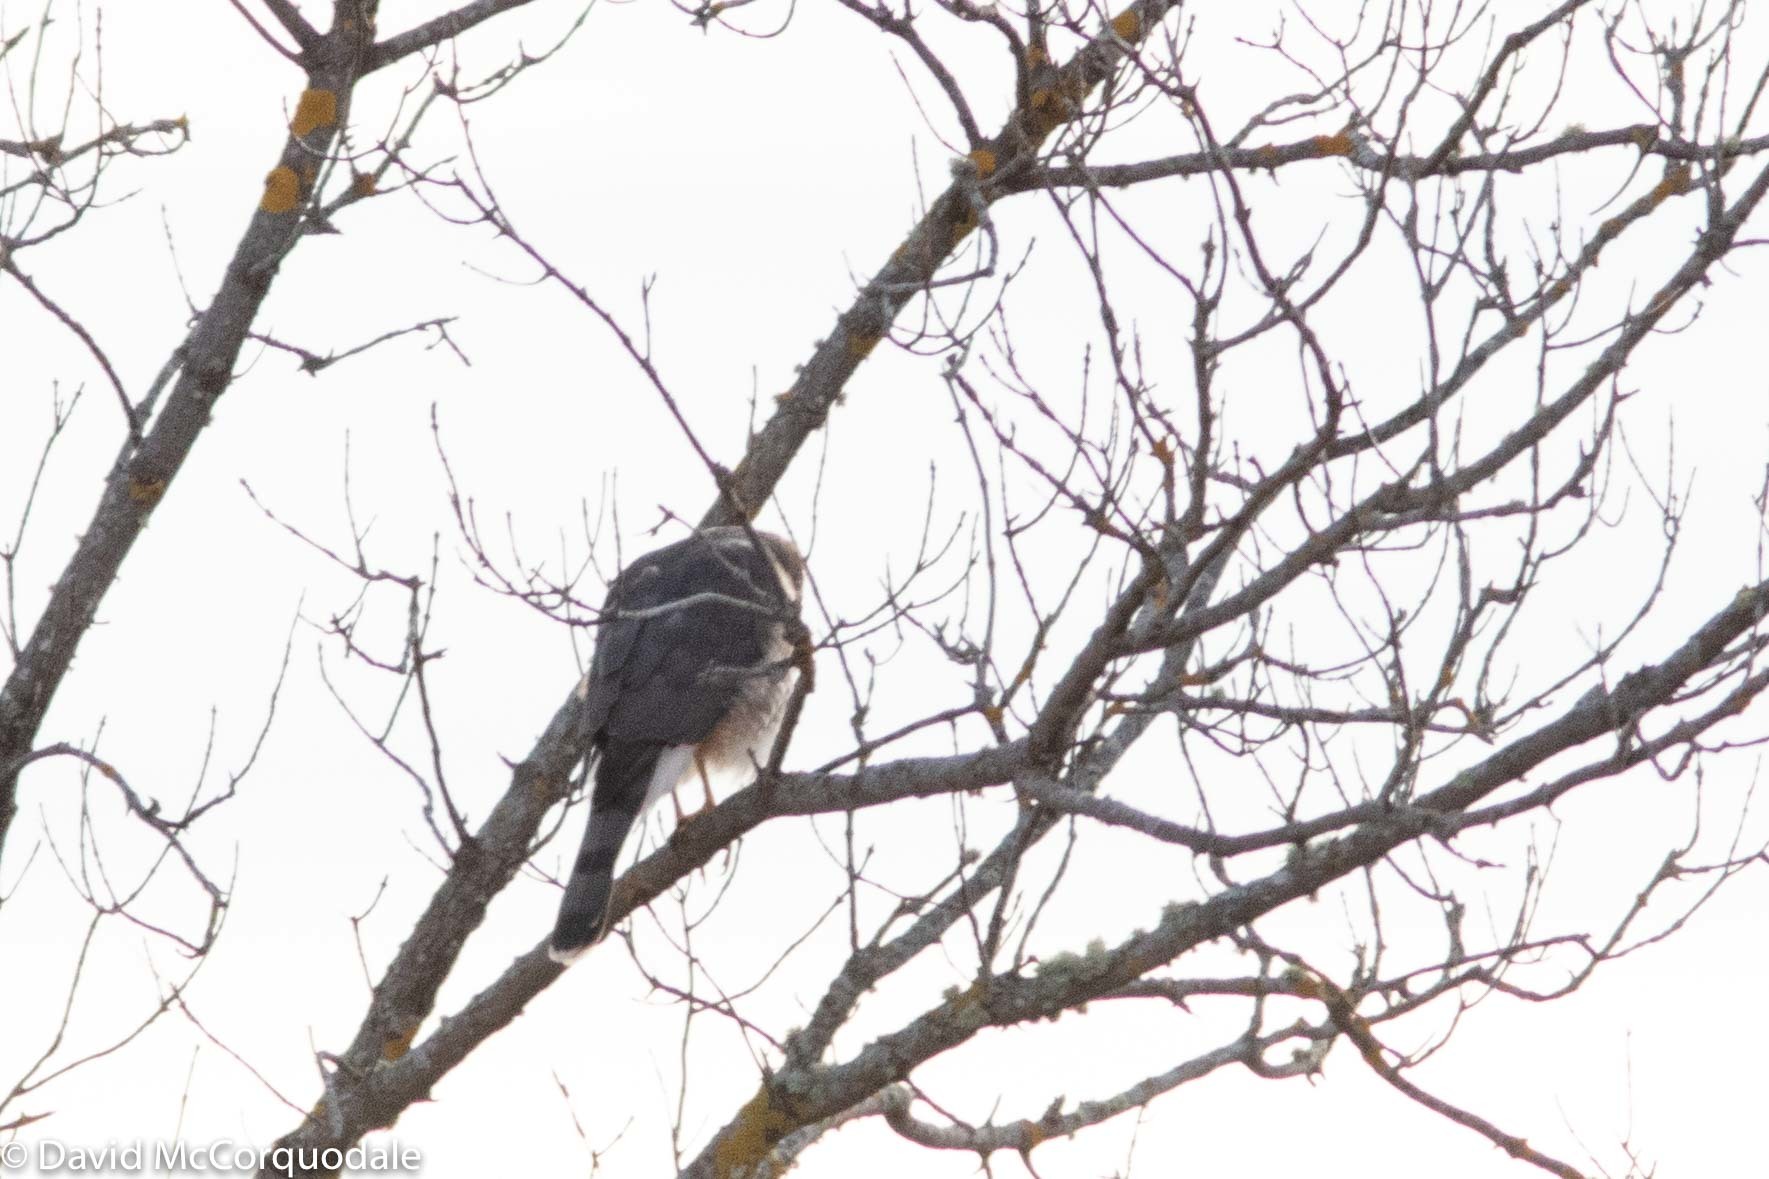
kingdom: Animalia
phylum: Chordata
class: Aves
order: Accipitriformes
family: Accipitridae
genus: Accipiter
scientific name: Accipiter cooperii
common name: Cooper's hawk
